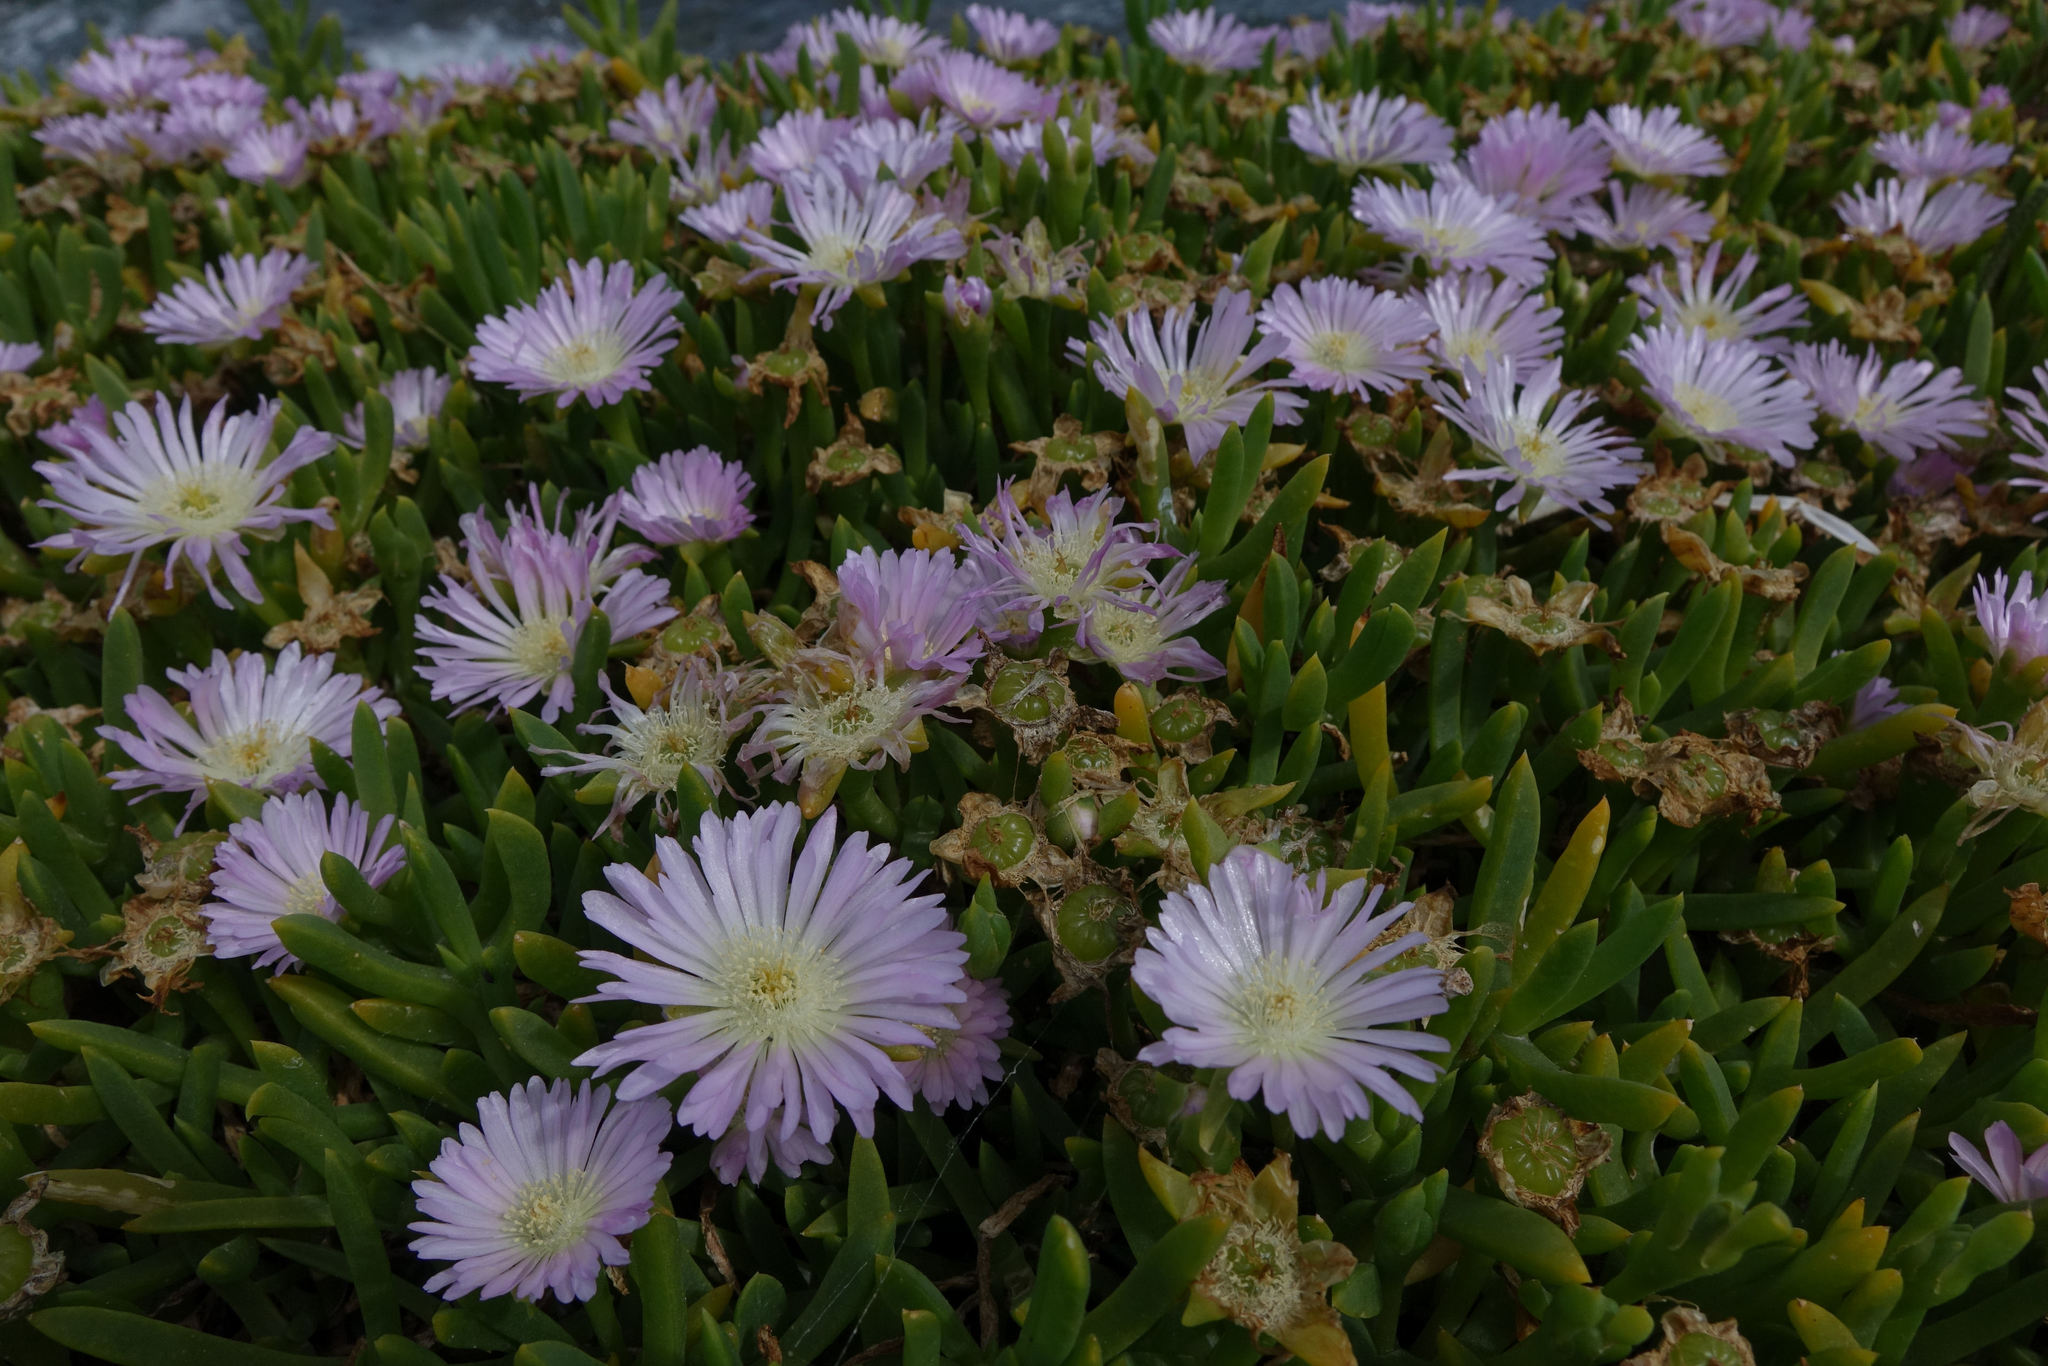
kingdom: Plantae
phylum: Tracheophyta
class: Magnoliopsida
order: Caryophyllales
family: Aizoaceae
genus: Disphyma
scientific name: Disphyma australe
